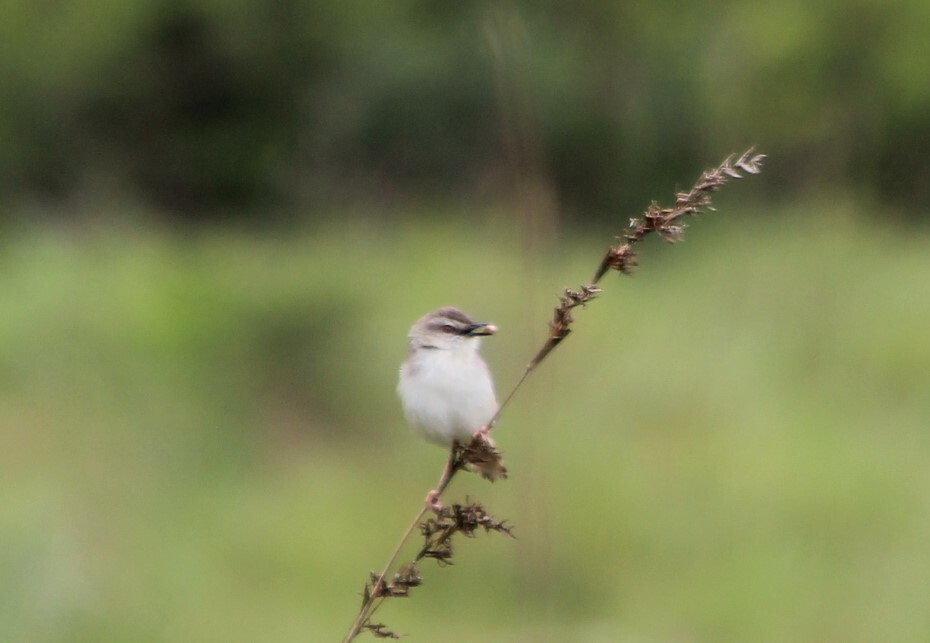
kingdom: Animalia
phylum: Chordata
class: Aves
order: Passeriformes
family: Cisticolidae
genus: Prinia
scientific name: Prinia subflava
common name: Tawny-flanked prinia
